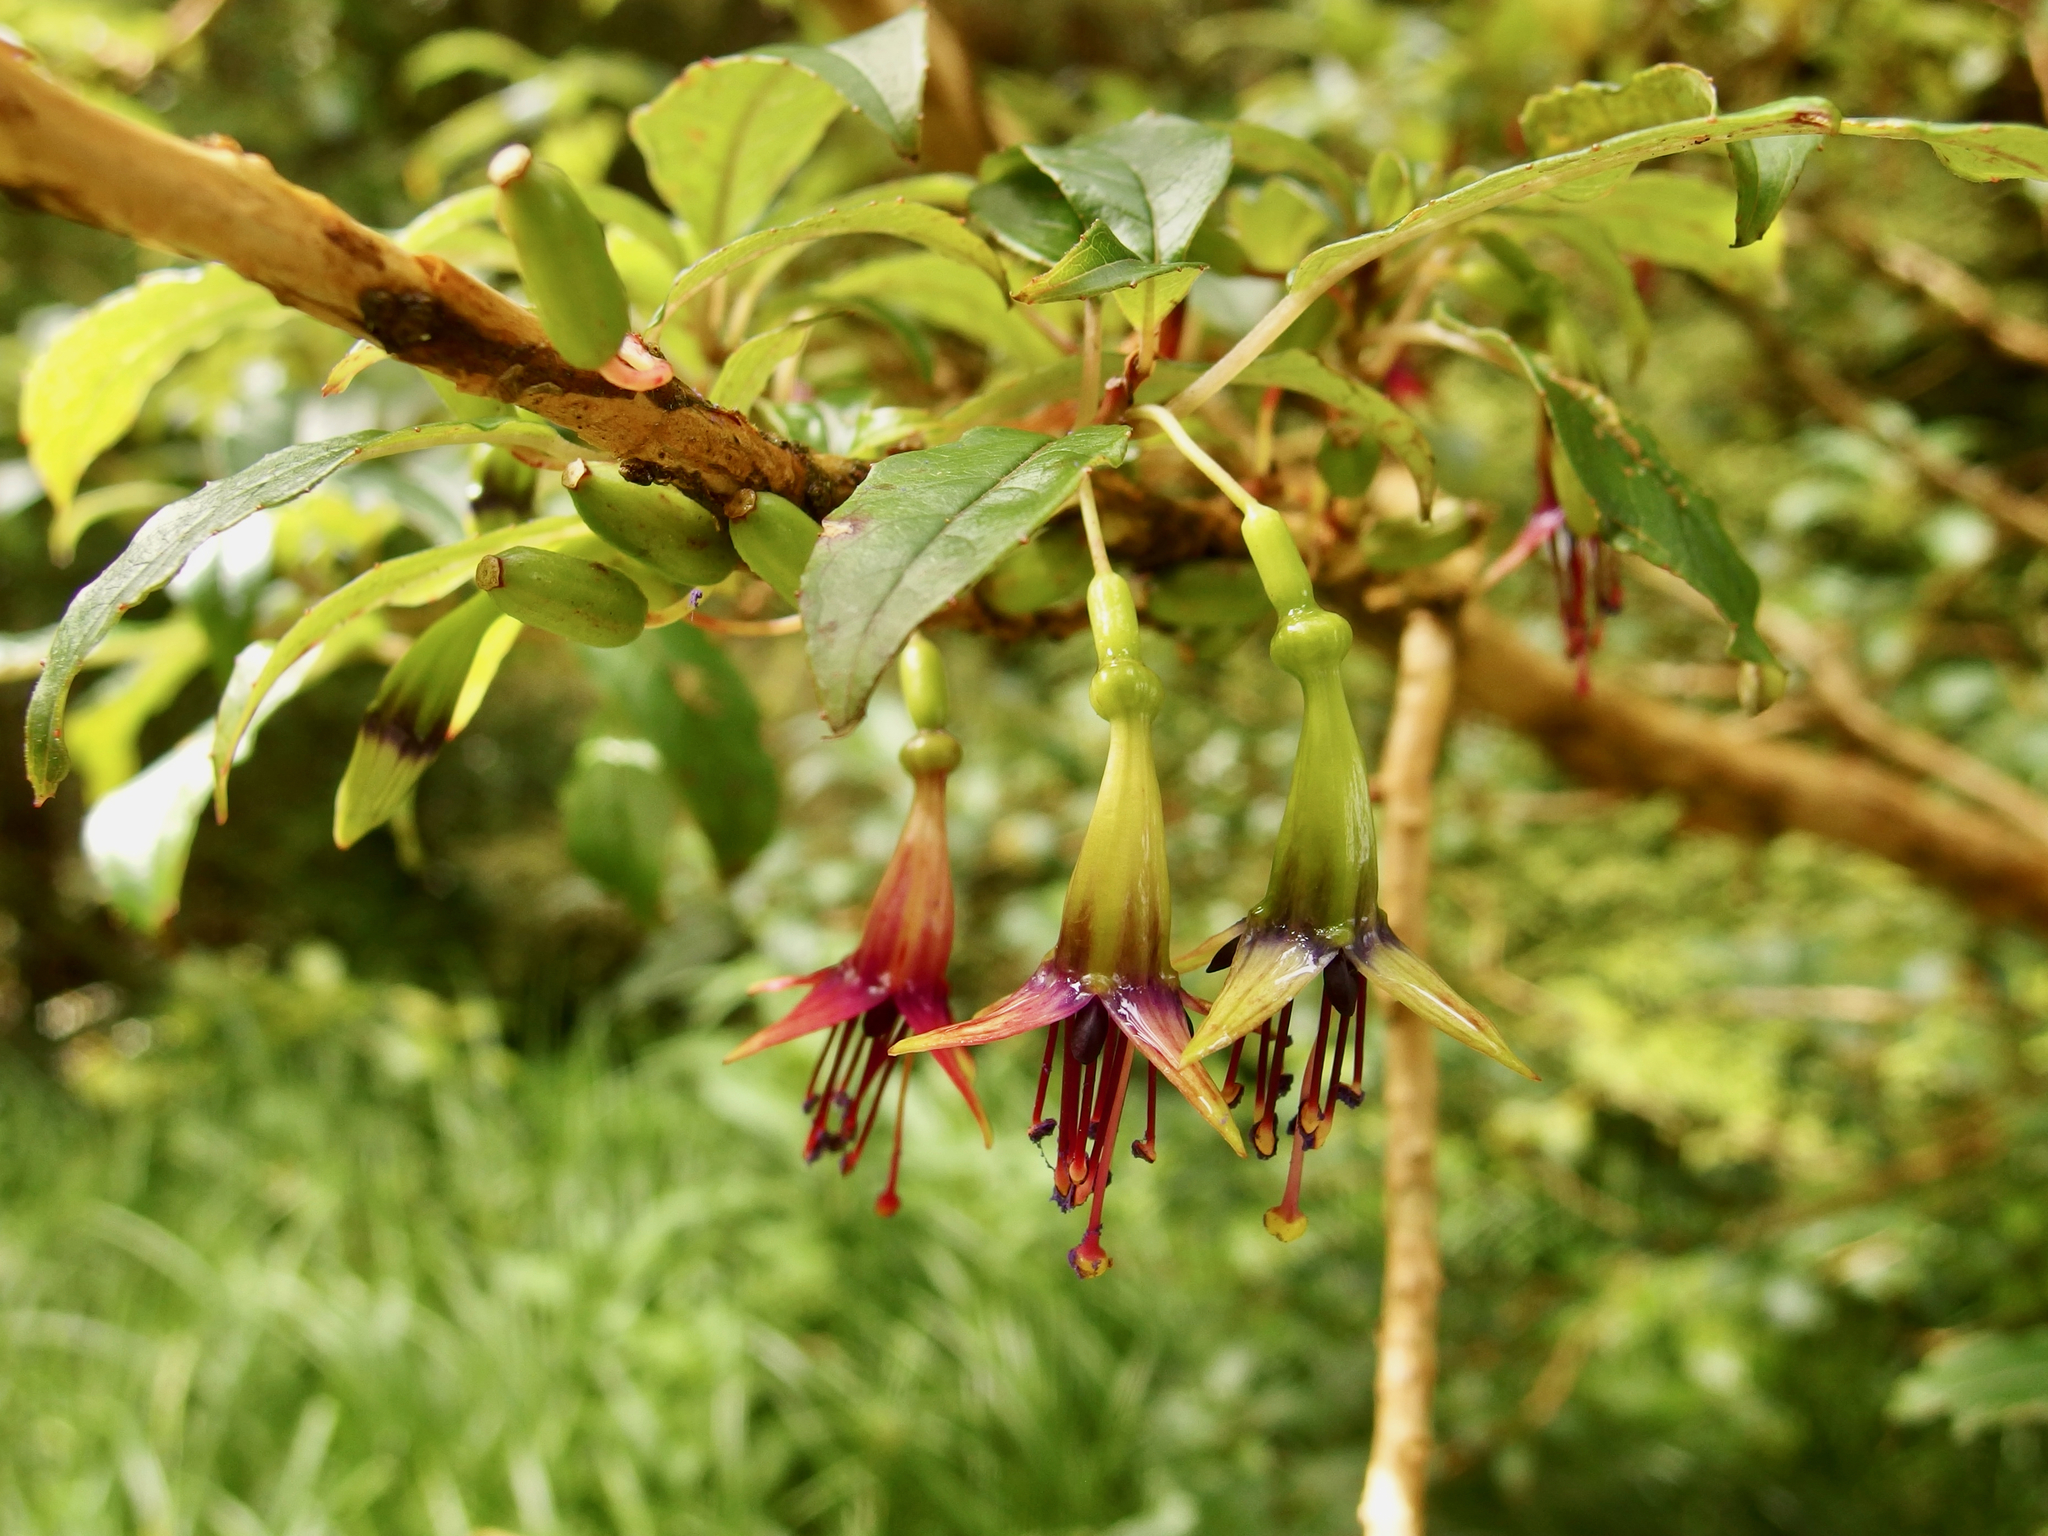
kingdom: Plantae
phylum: Tracheophyta
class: Magnoliopsida
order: Myrtales
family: Onagraceae
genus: Fuchsia
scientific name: Fuchsia excorticata
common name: Tree fuchsia
